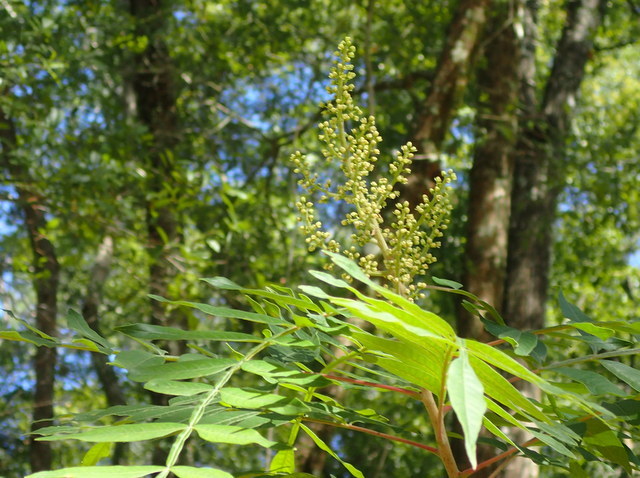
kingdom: Plantae
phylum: Tracheophyta
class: Magnoliopsida
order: Sapindales
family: Anacardiaceae
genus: Rhus
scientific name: Rhus copallina
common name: Shining sumac
